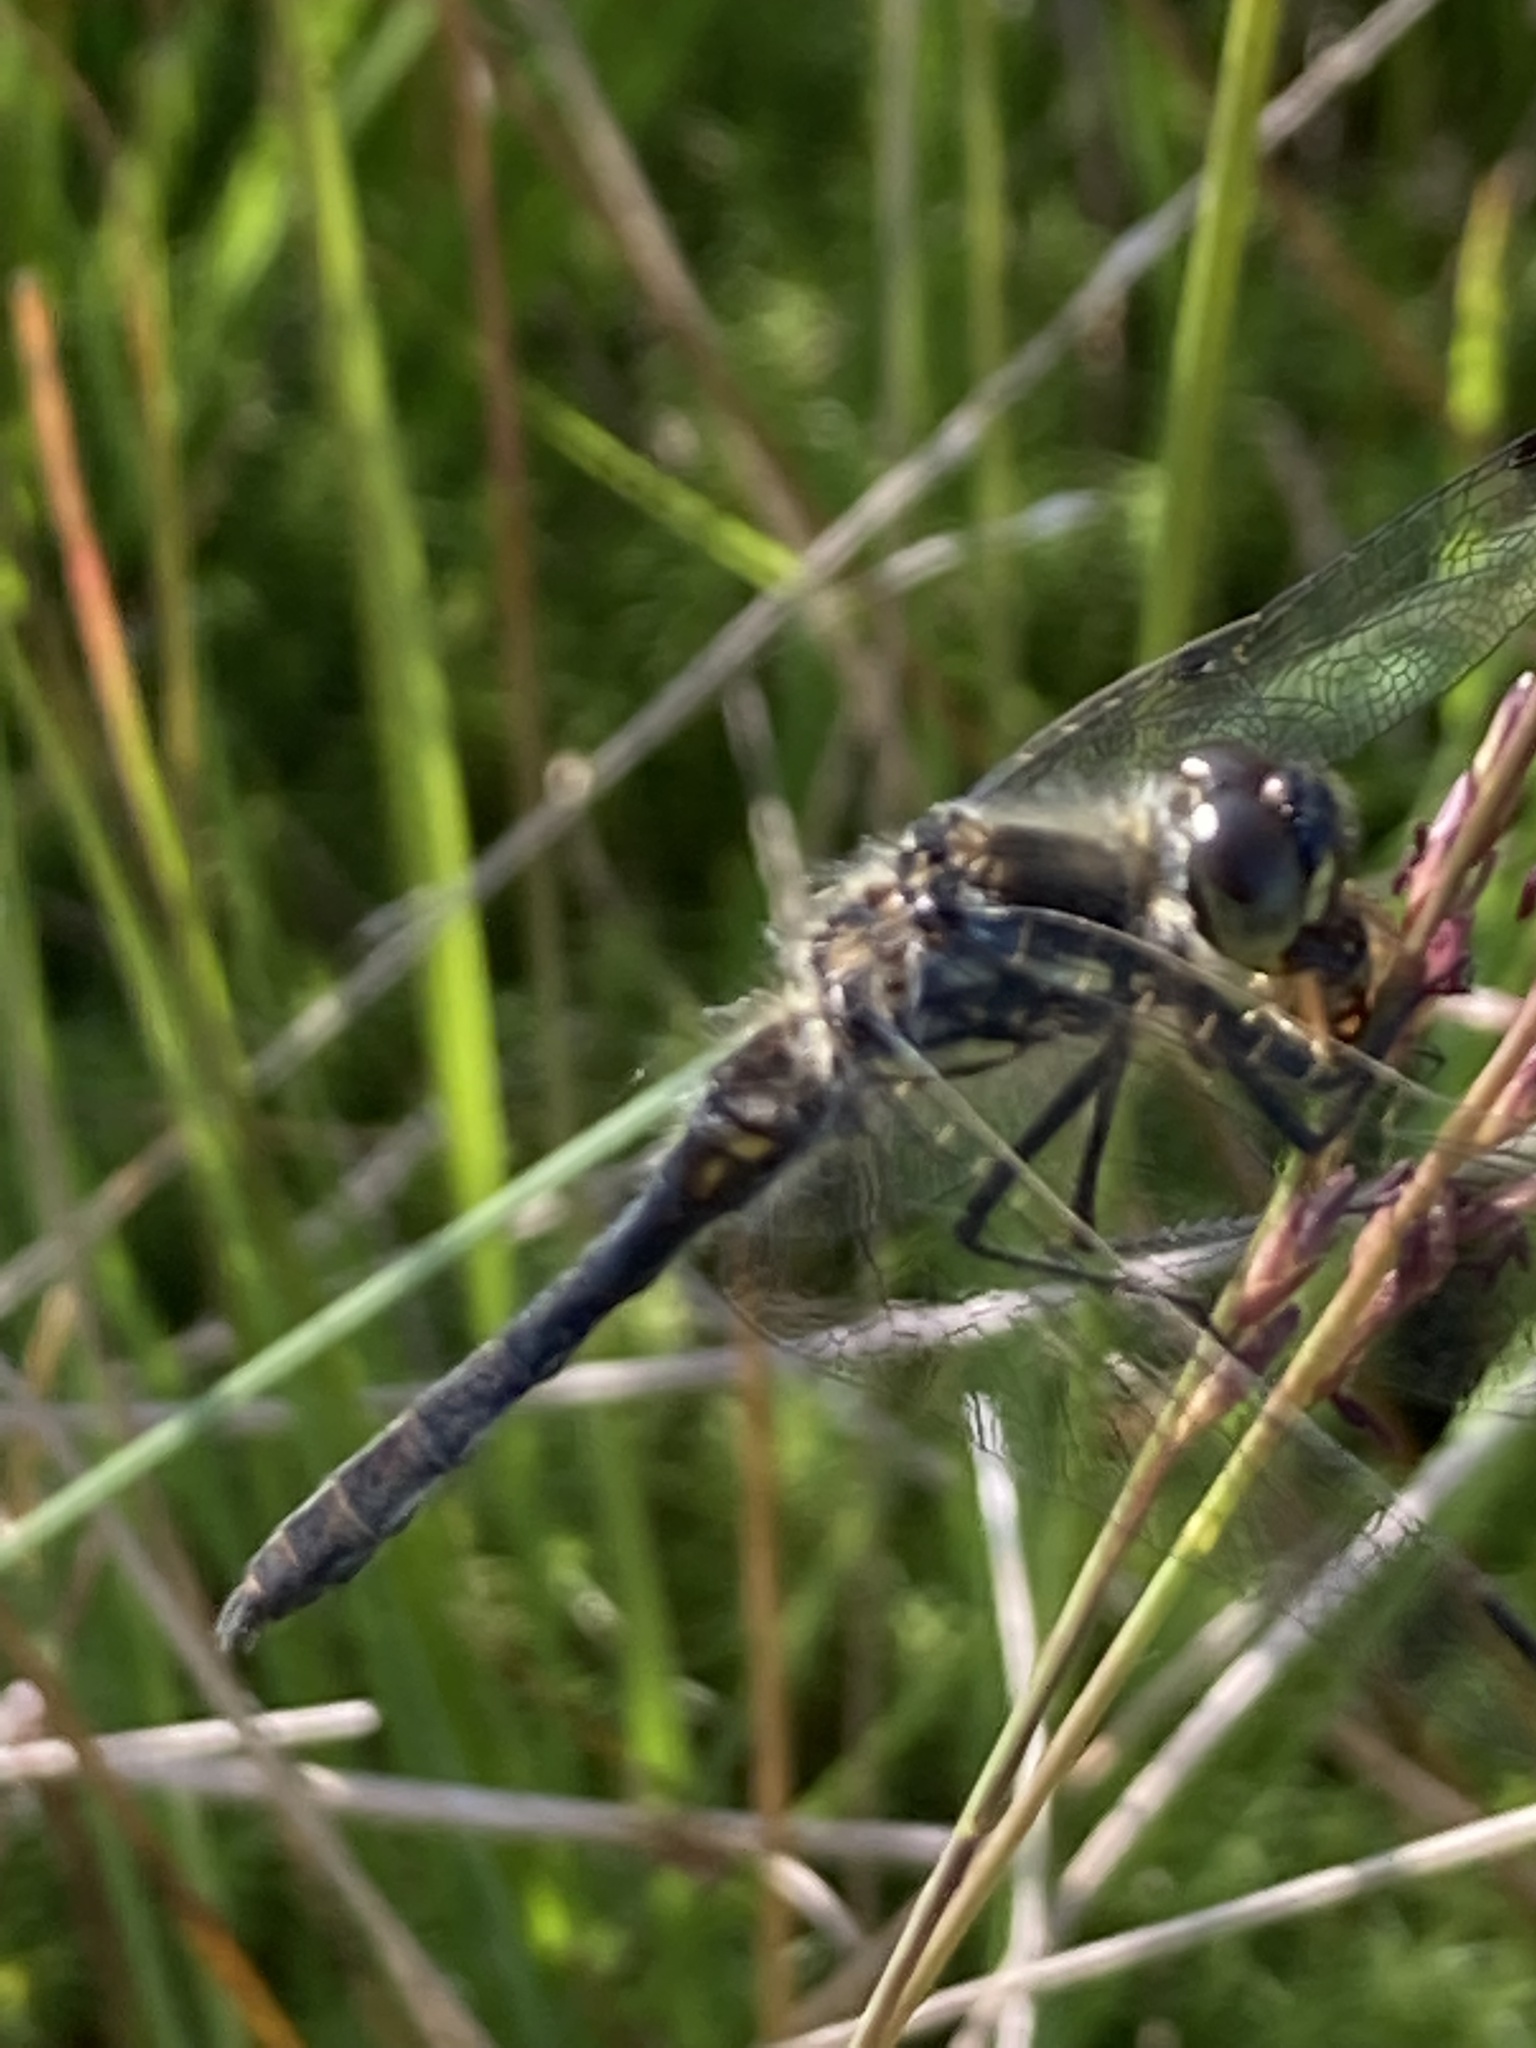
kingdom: Animalia
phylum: Arthropoda
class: Insecta
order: Odonata
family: Libellulidae
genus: Sympetrum
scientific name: Sympetrum danae
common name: Black darter
